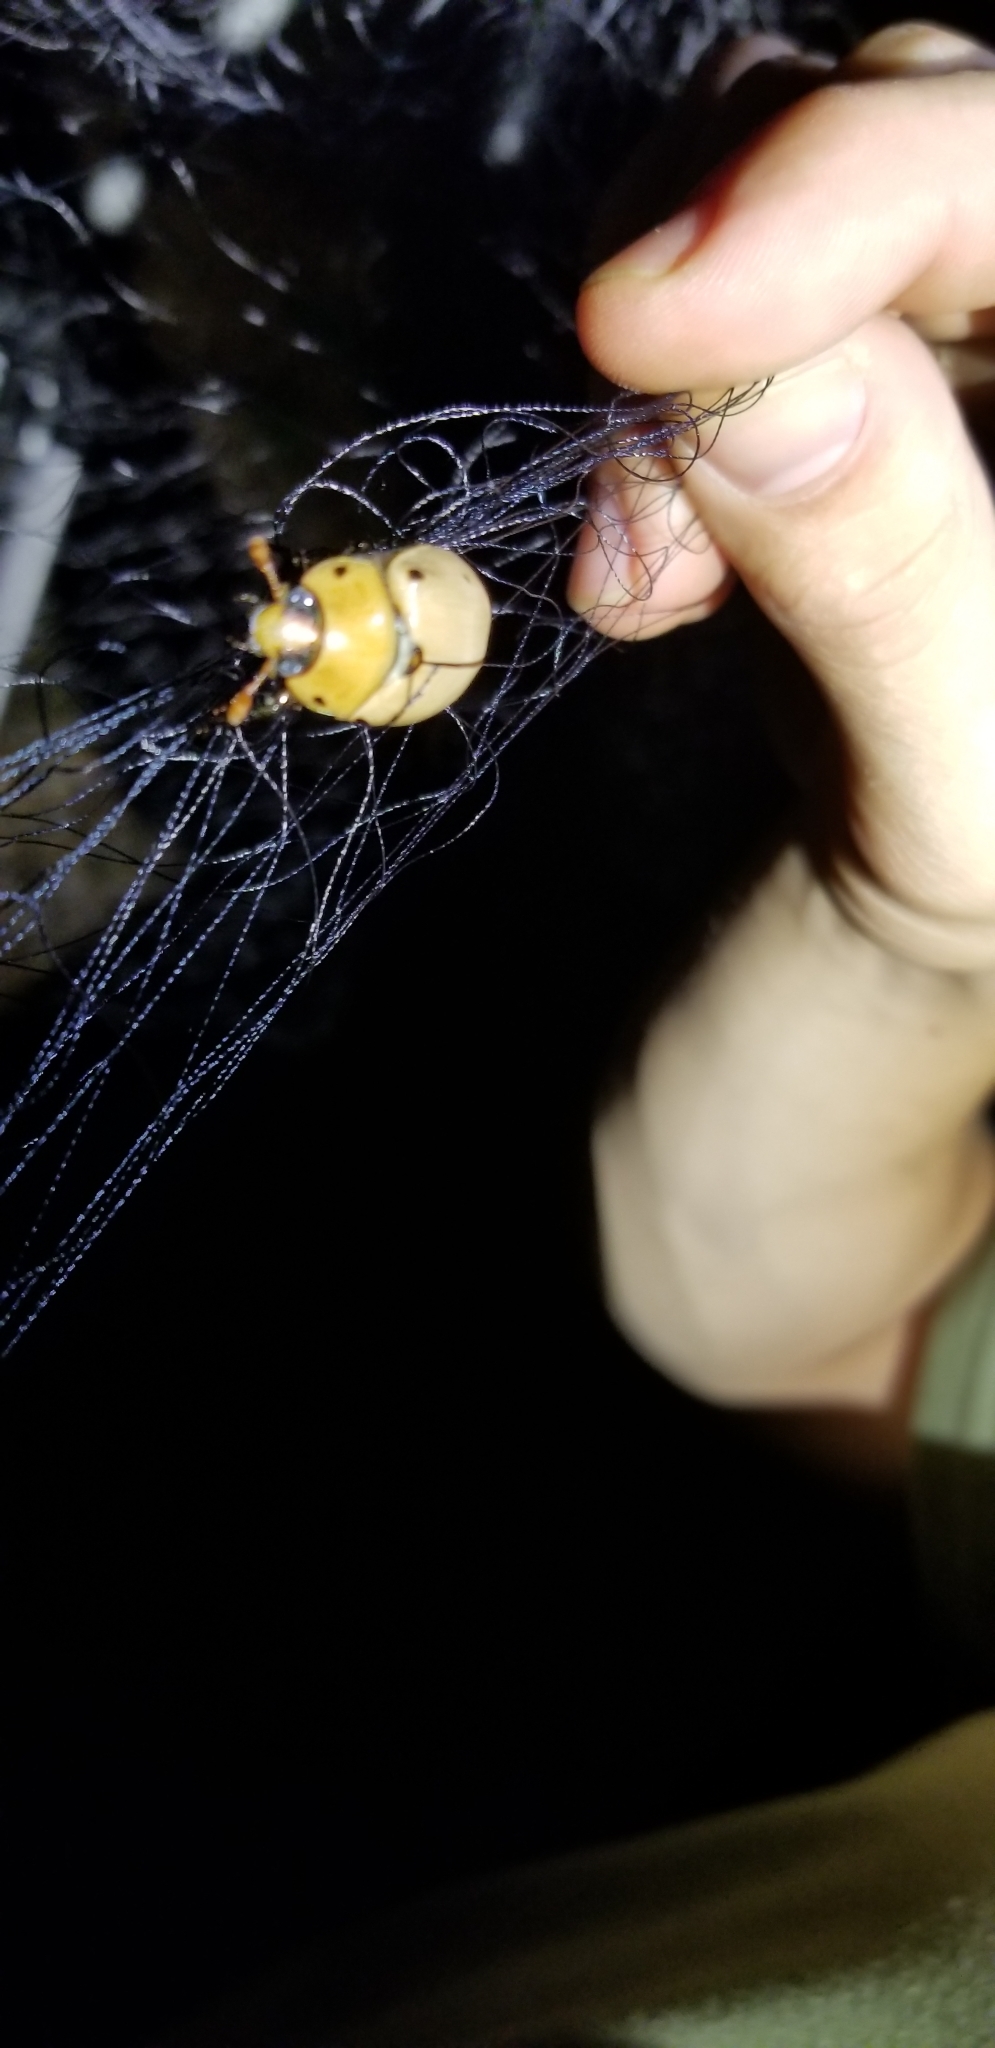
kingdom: Animalia
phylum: Arthropoda
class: Insecta
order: Coleoptera
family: Scarabaeidae
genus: Pelidnota
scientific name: Pelidnota punctata
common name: Grapevine beetle
